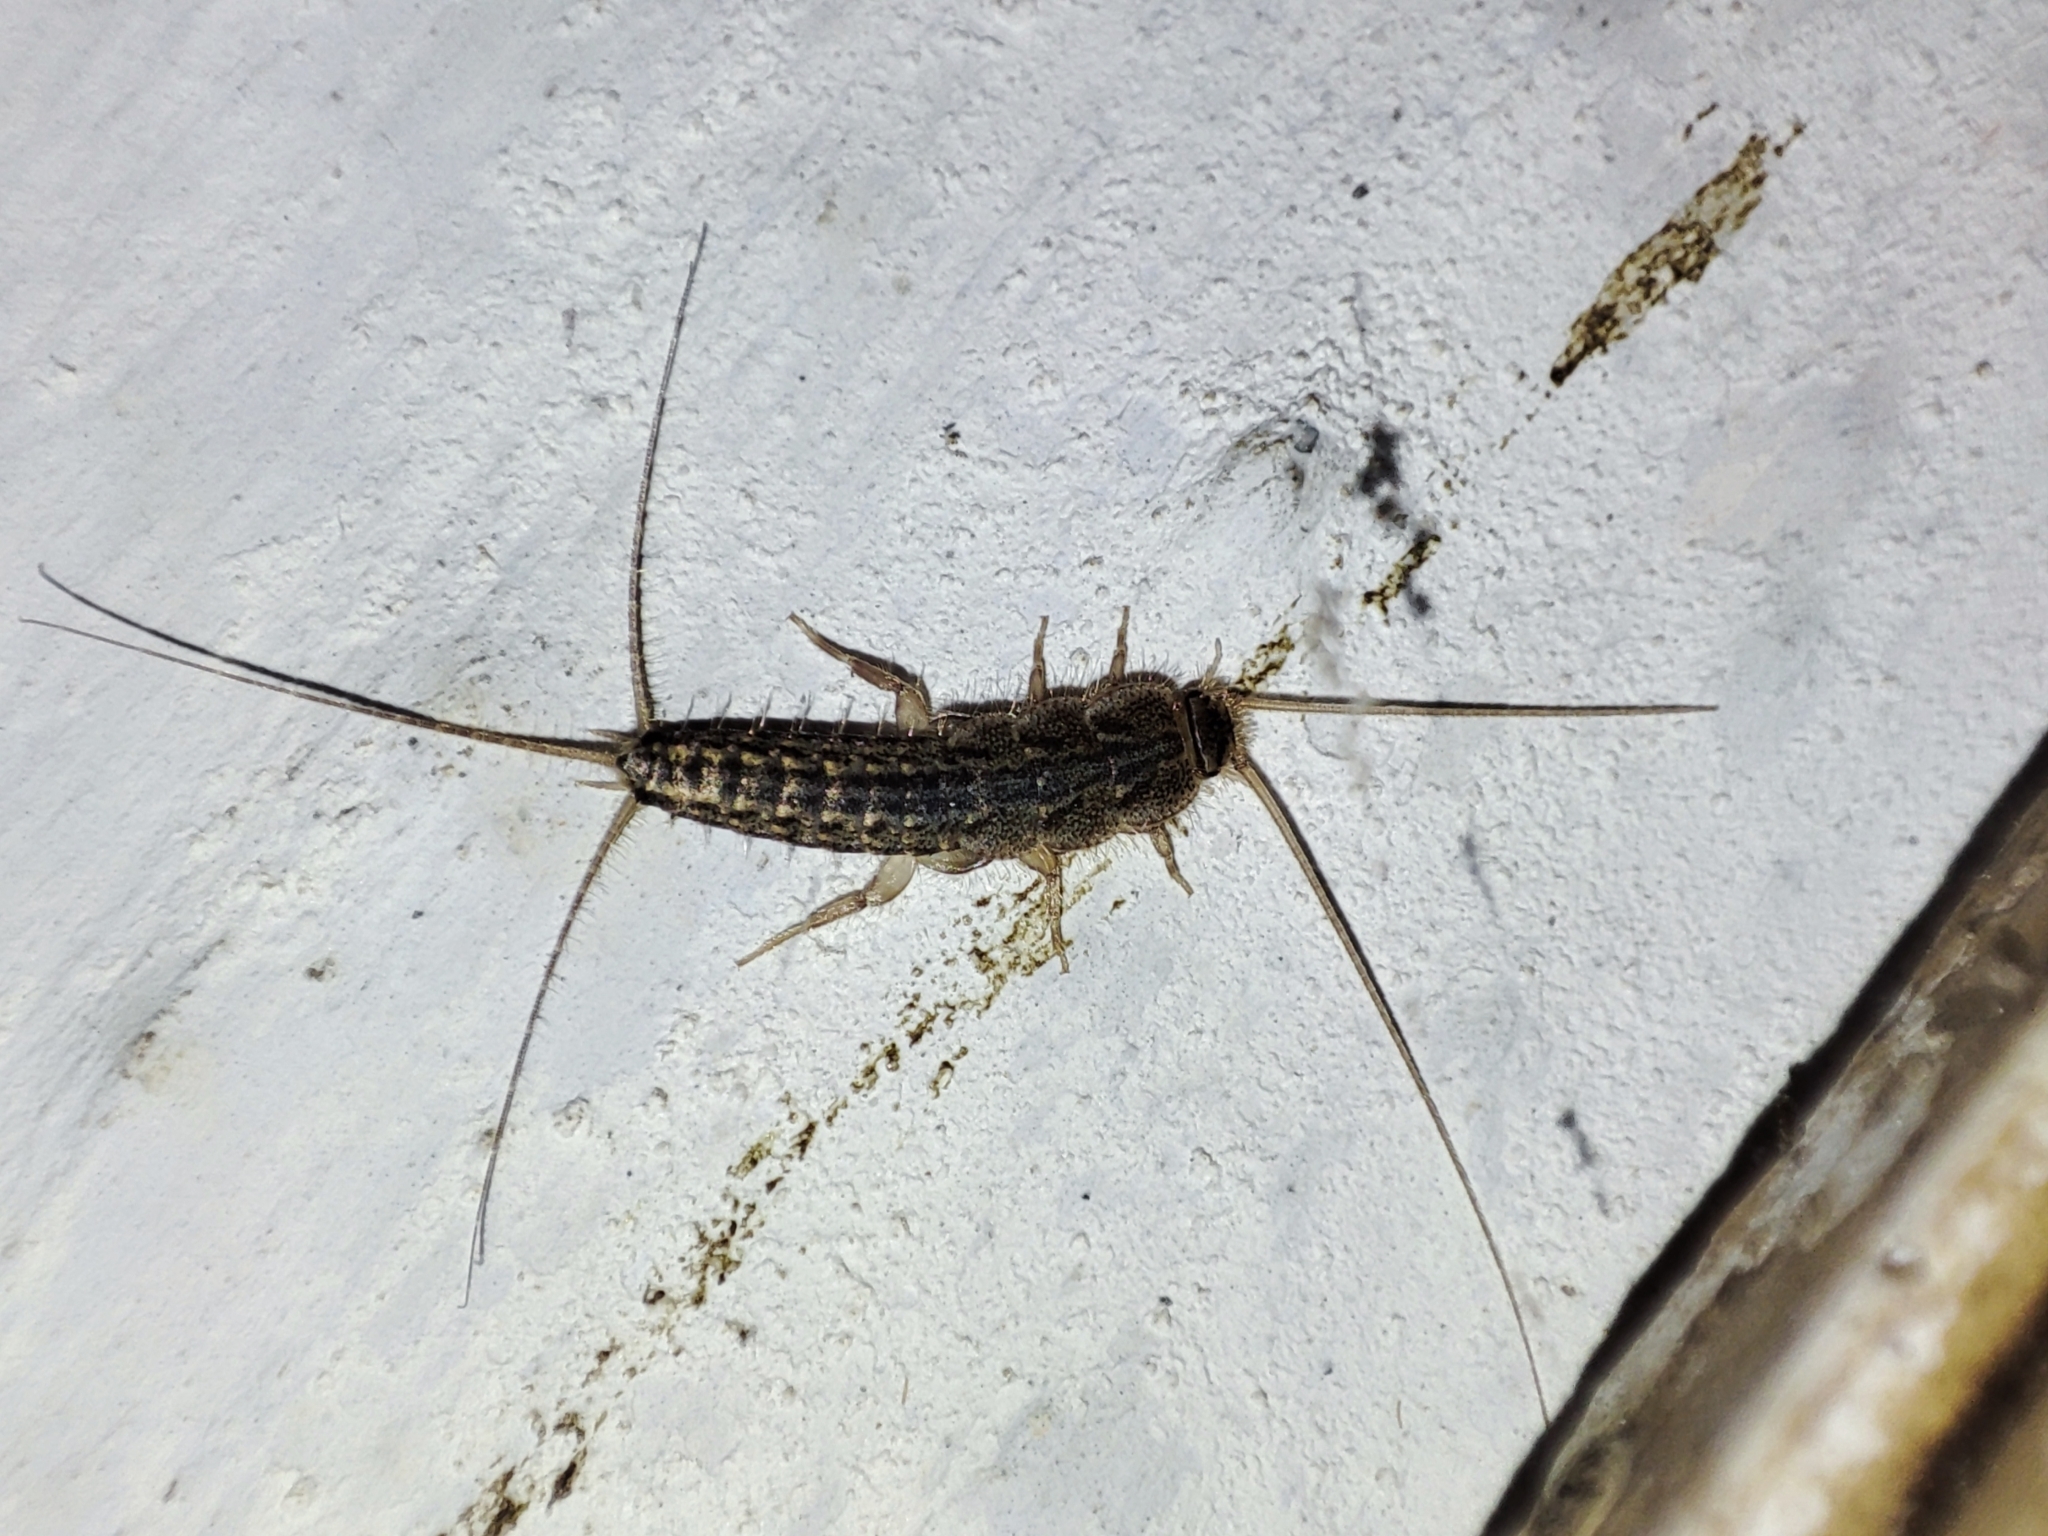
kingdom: Animalia
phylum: Arthropoda
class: Insecta
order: Zygentoma
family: Lepismatidae
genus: Ctenolepisma
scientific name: Ctenolepisma lineata
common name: Four-lined silverfish
